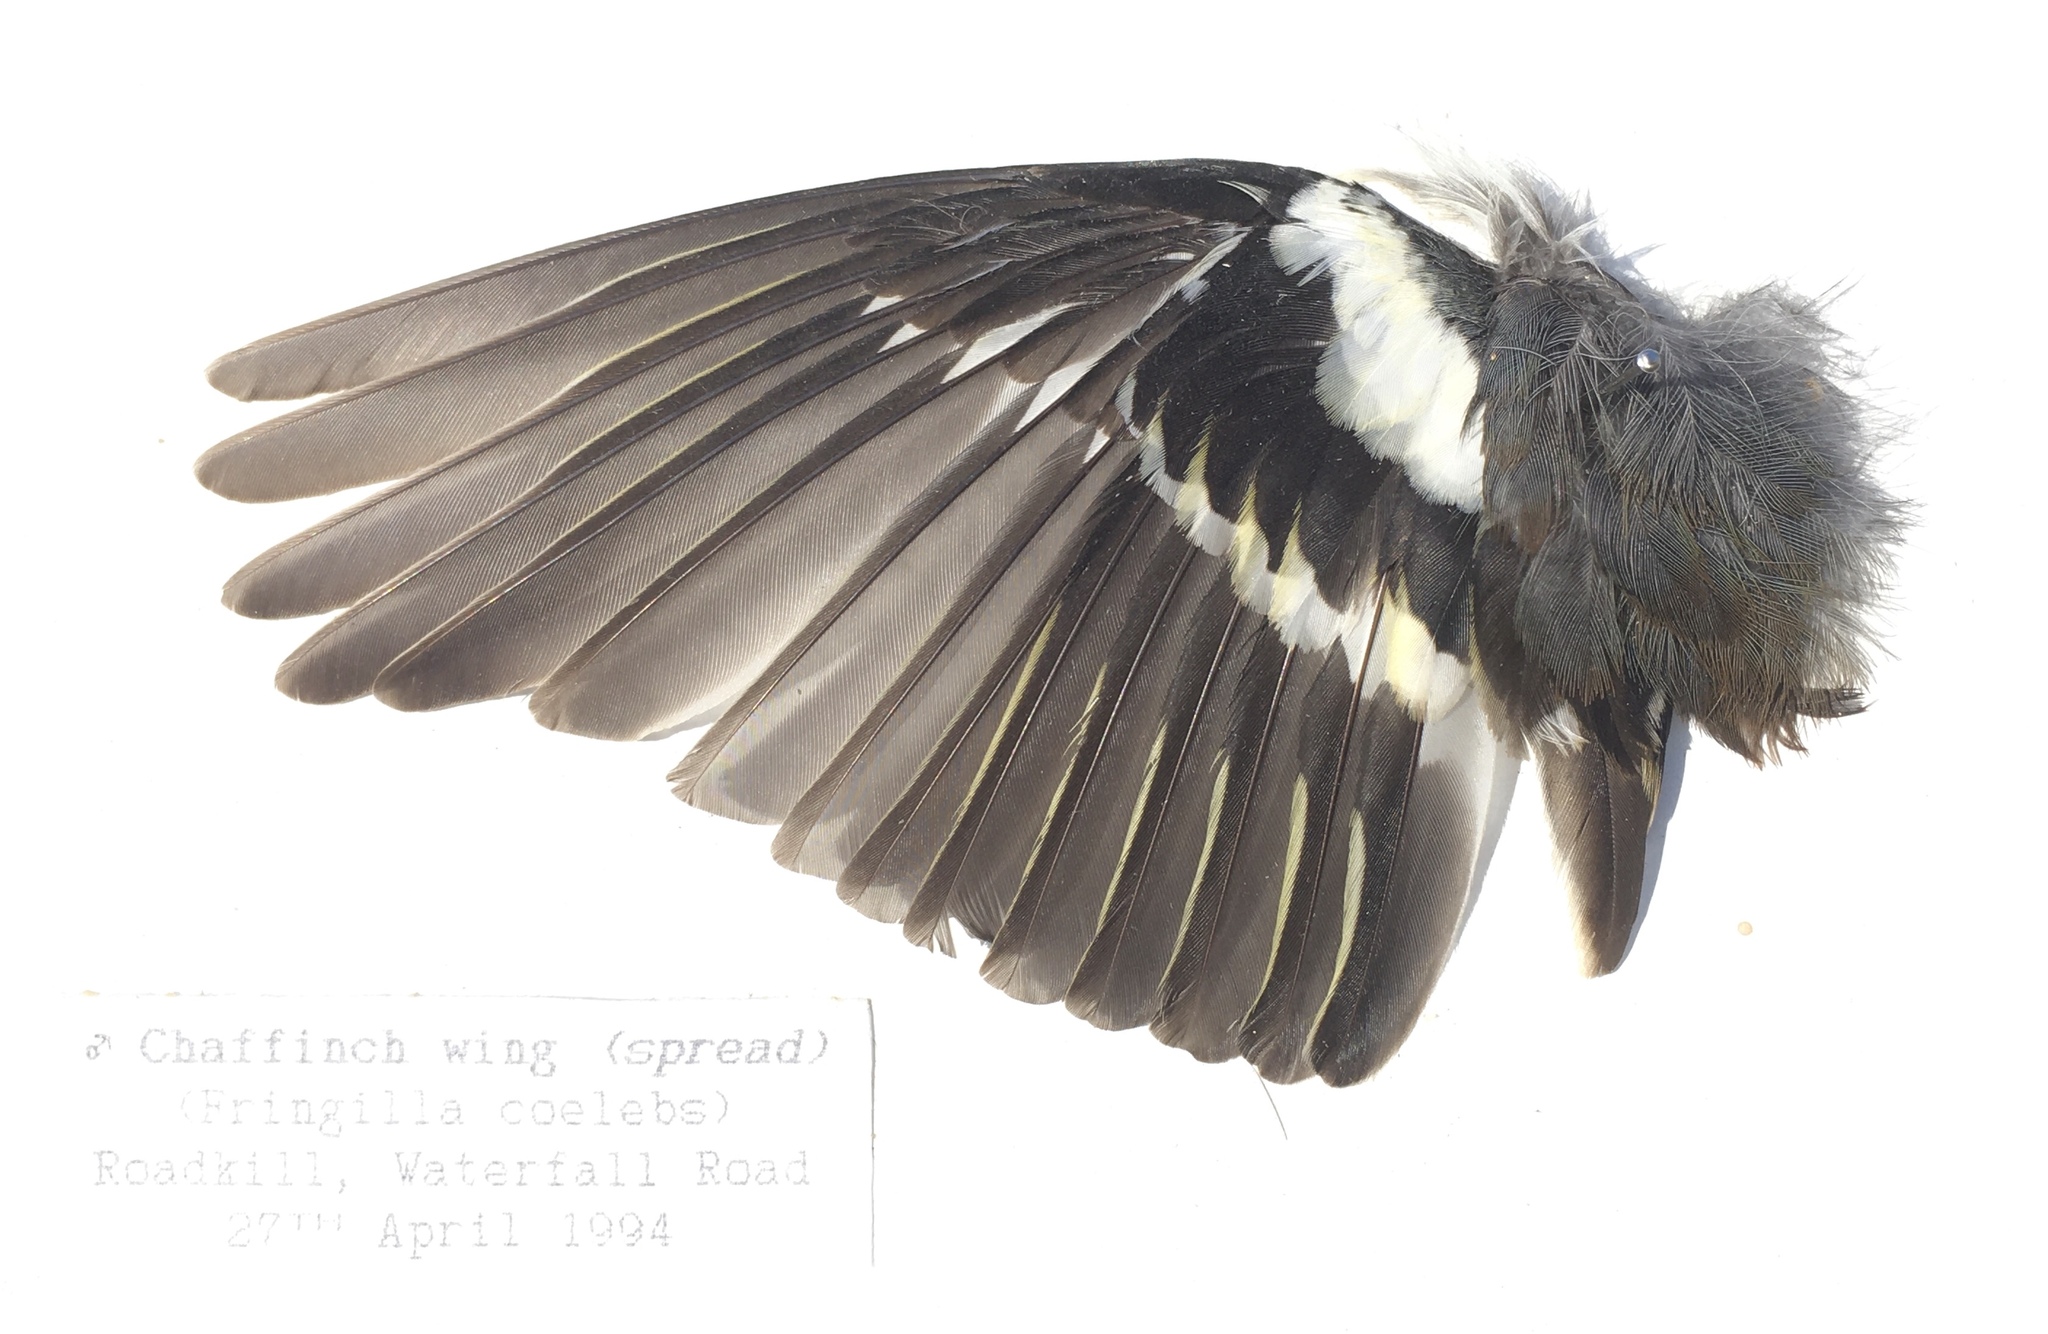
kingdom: Animalia
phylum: Chordata
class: Aves
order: Passeriformes
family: Fringillidae
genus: Fringilla
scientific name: Fringilla coelebs
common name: Common chaffinch
